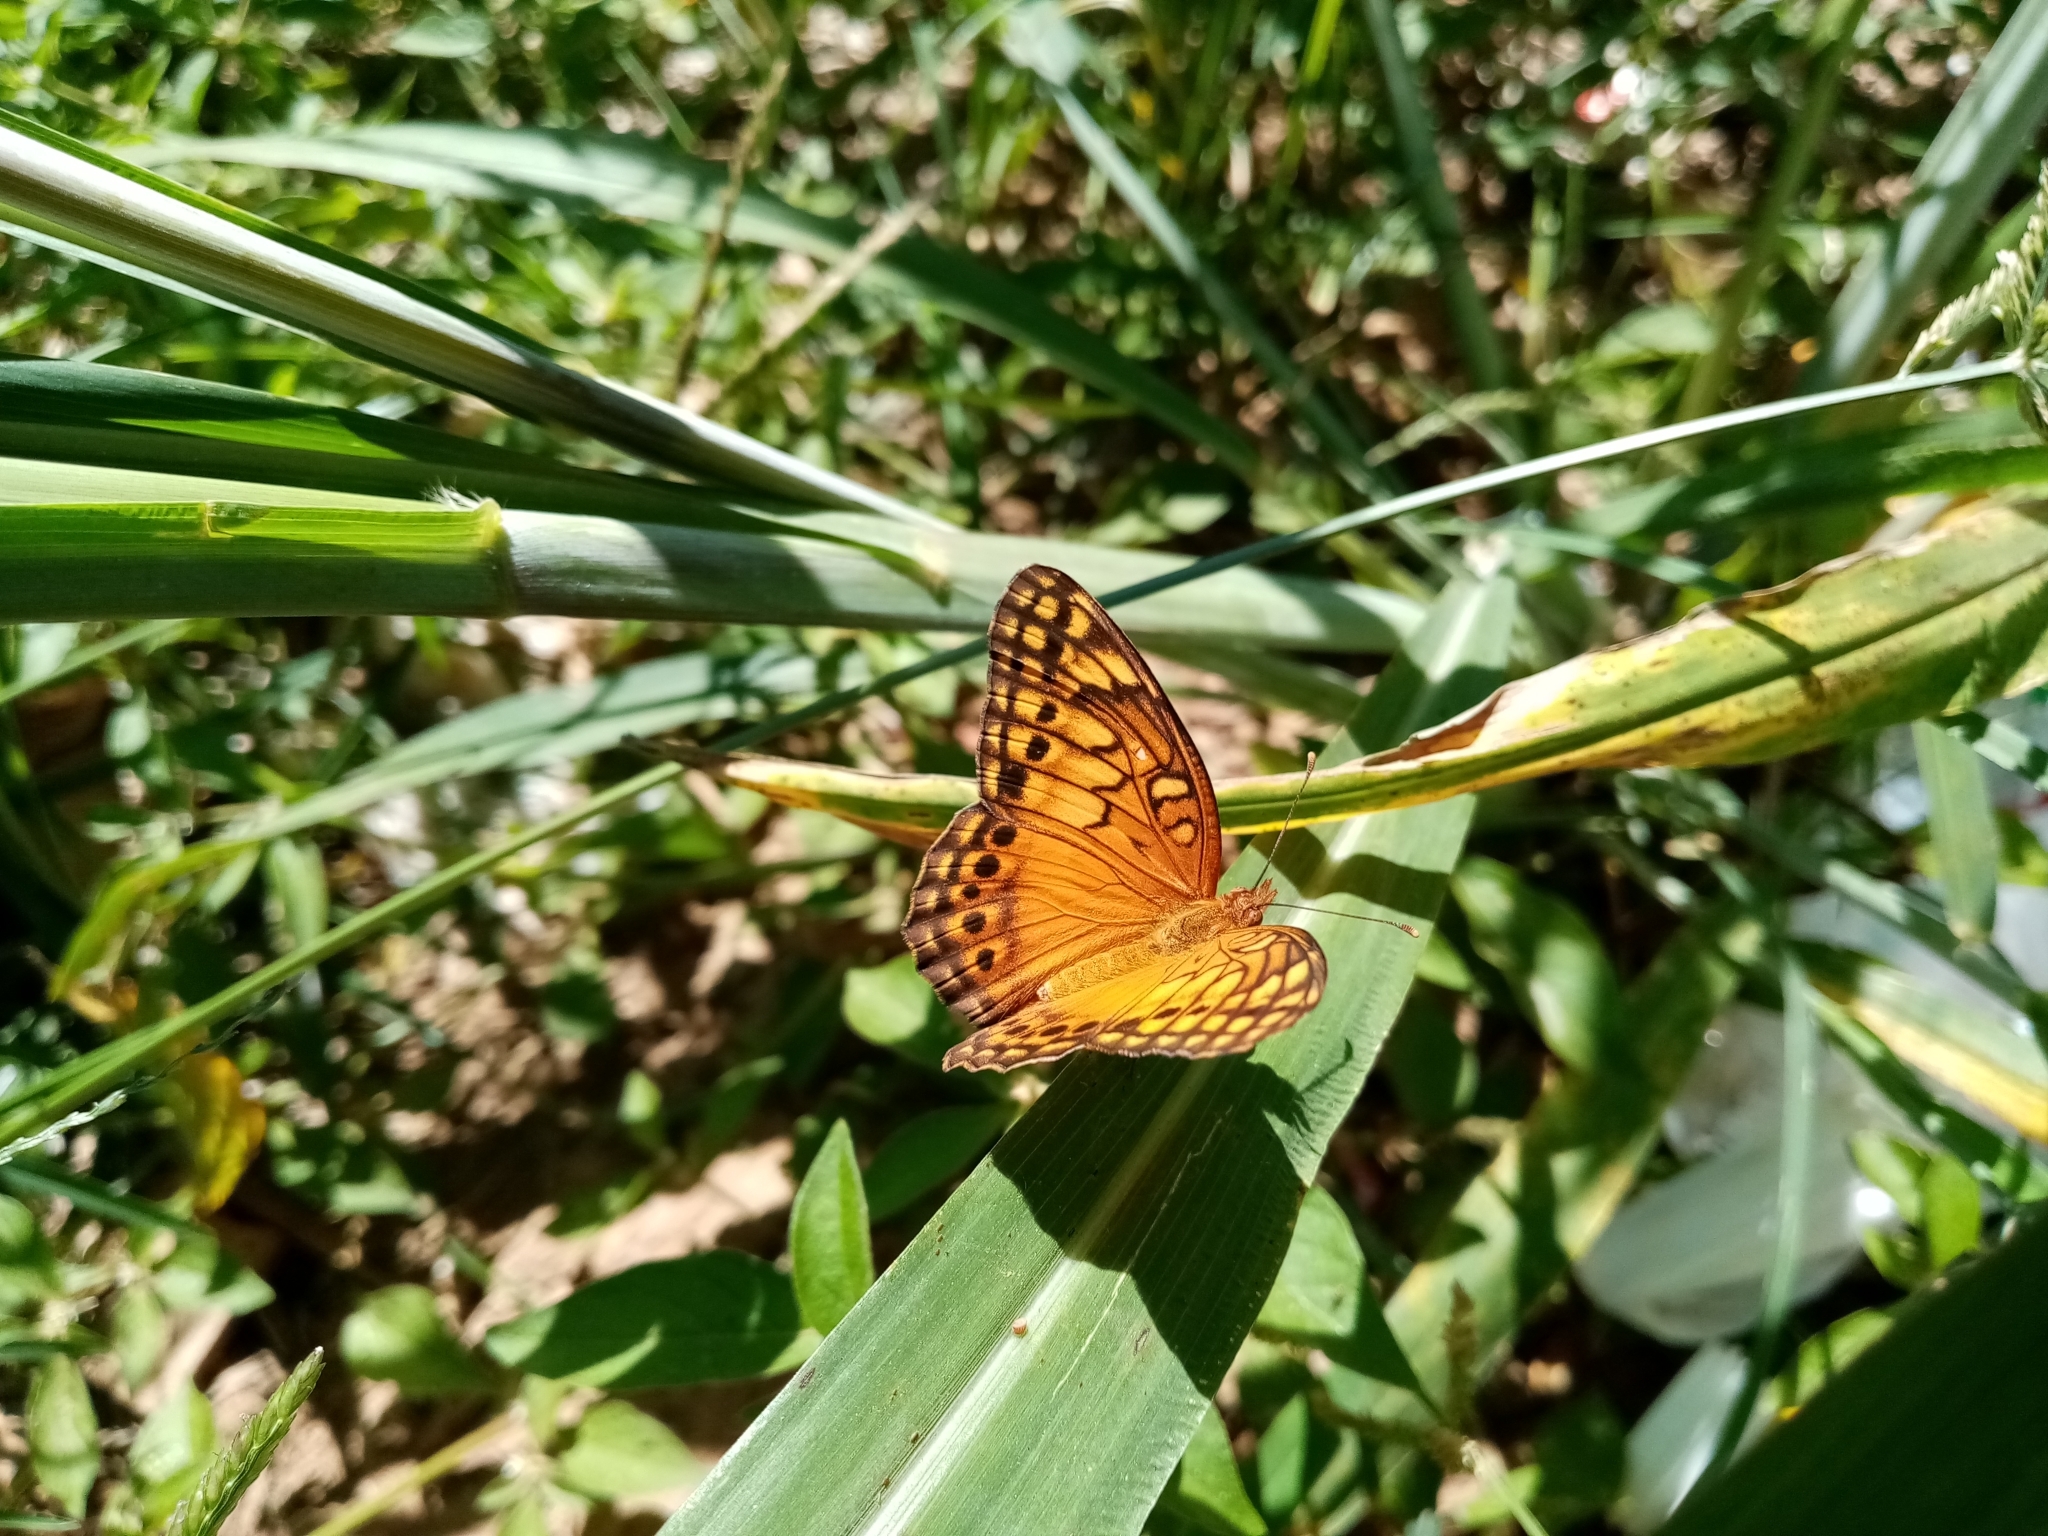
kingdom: Animalia
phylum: Arthropoda
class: Insecta
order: Lepidoptera
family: Nymphalidae
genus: Euptoieta
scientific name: Euptoieta hegesia
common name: Mexican fritillary
